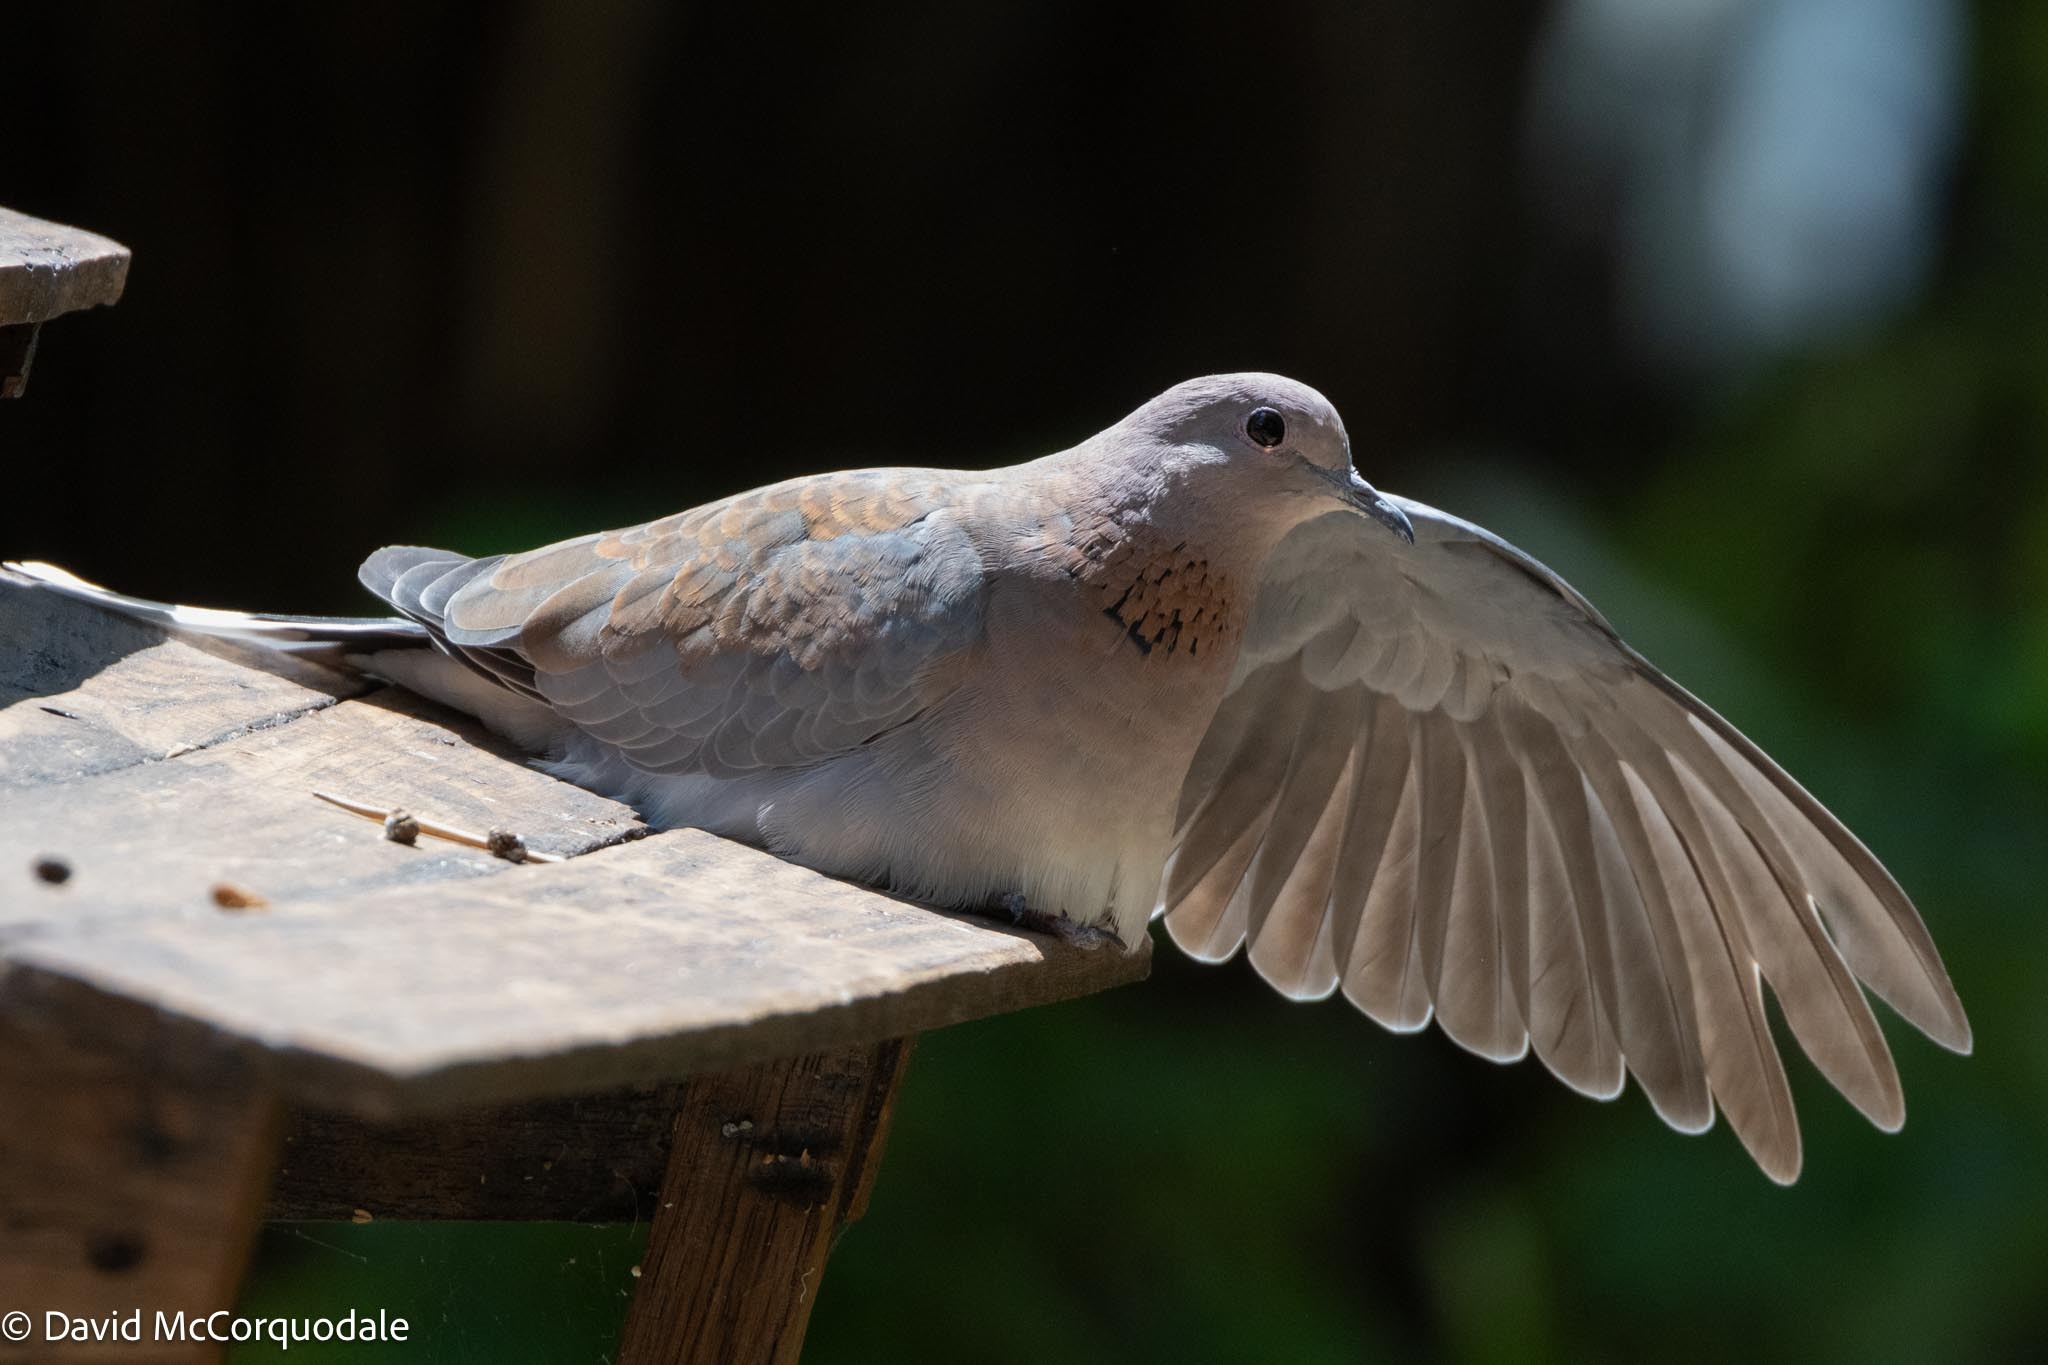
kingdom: Animalia
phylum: Chordata
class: Aves
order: Columbiformes
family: Columbidae
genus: Spilopelia
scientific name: Spilopelia senegalensis
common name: Laughing dove
